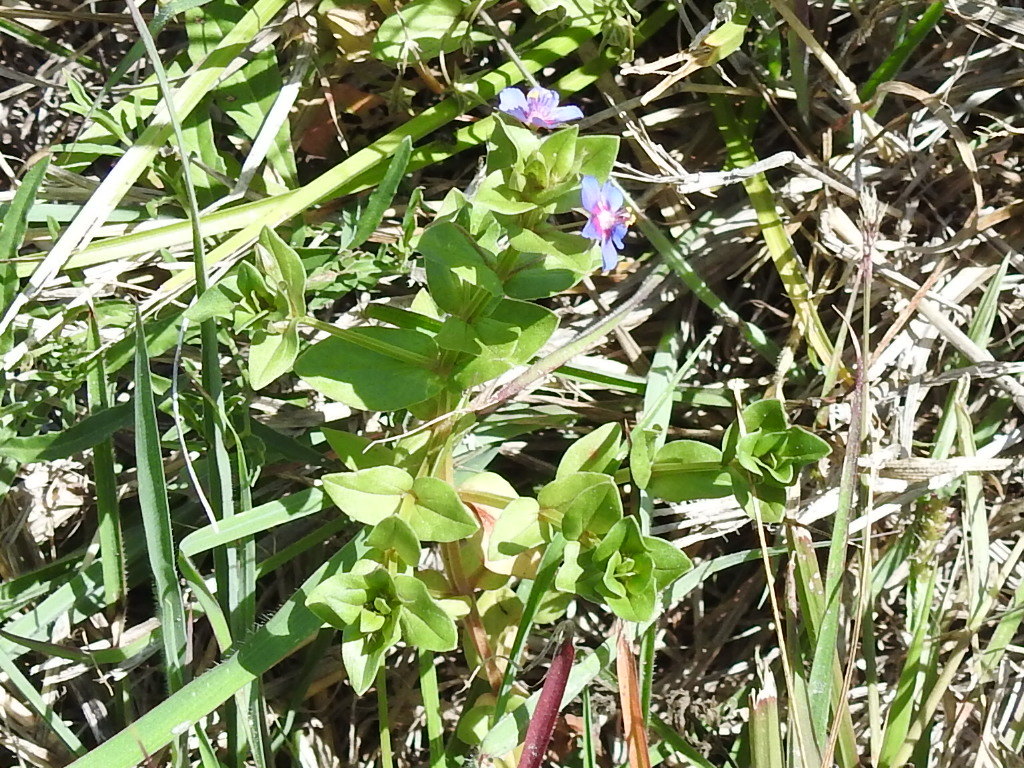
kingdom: Plantae
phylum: Tracheophyta
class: Magnoliopsida
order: Ericales
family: Primulaceae
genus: Lysimachia
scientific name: Lysimachia arvensis
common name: Scarlet pimpernel
